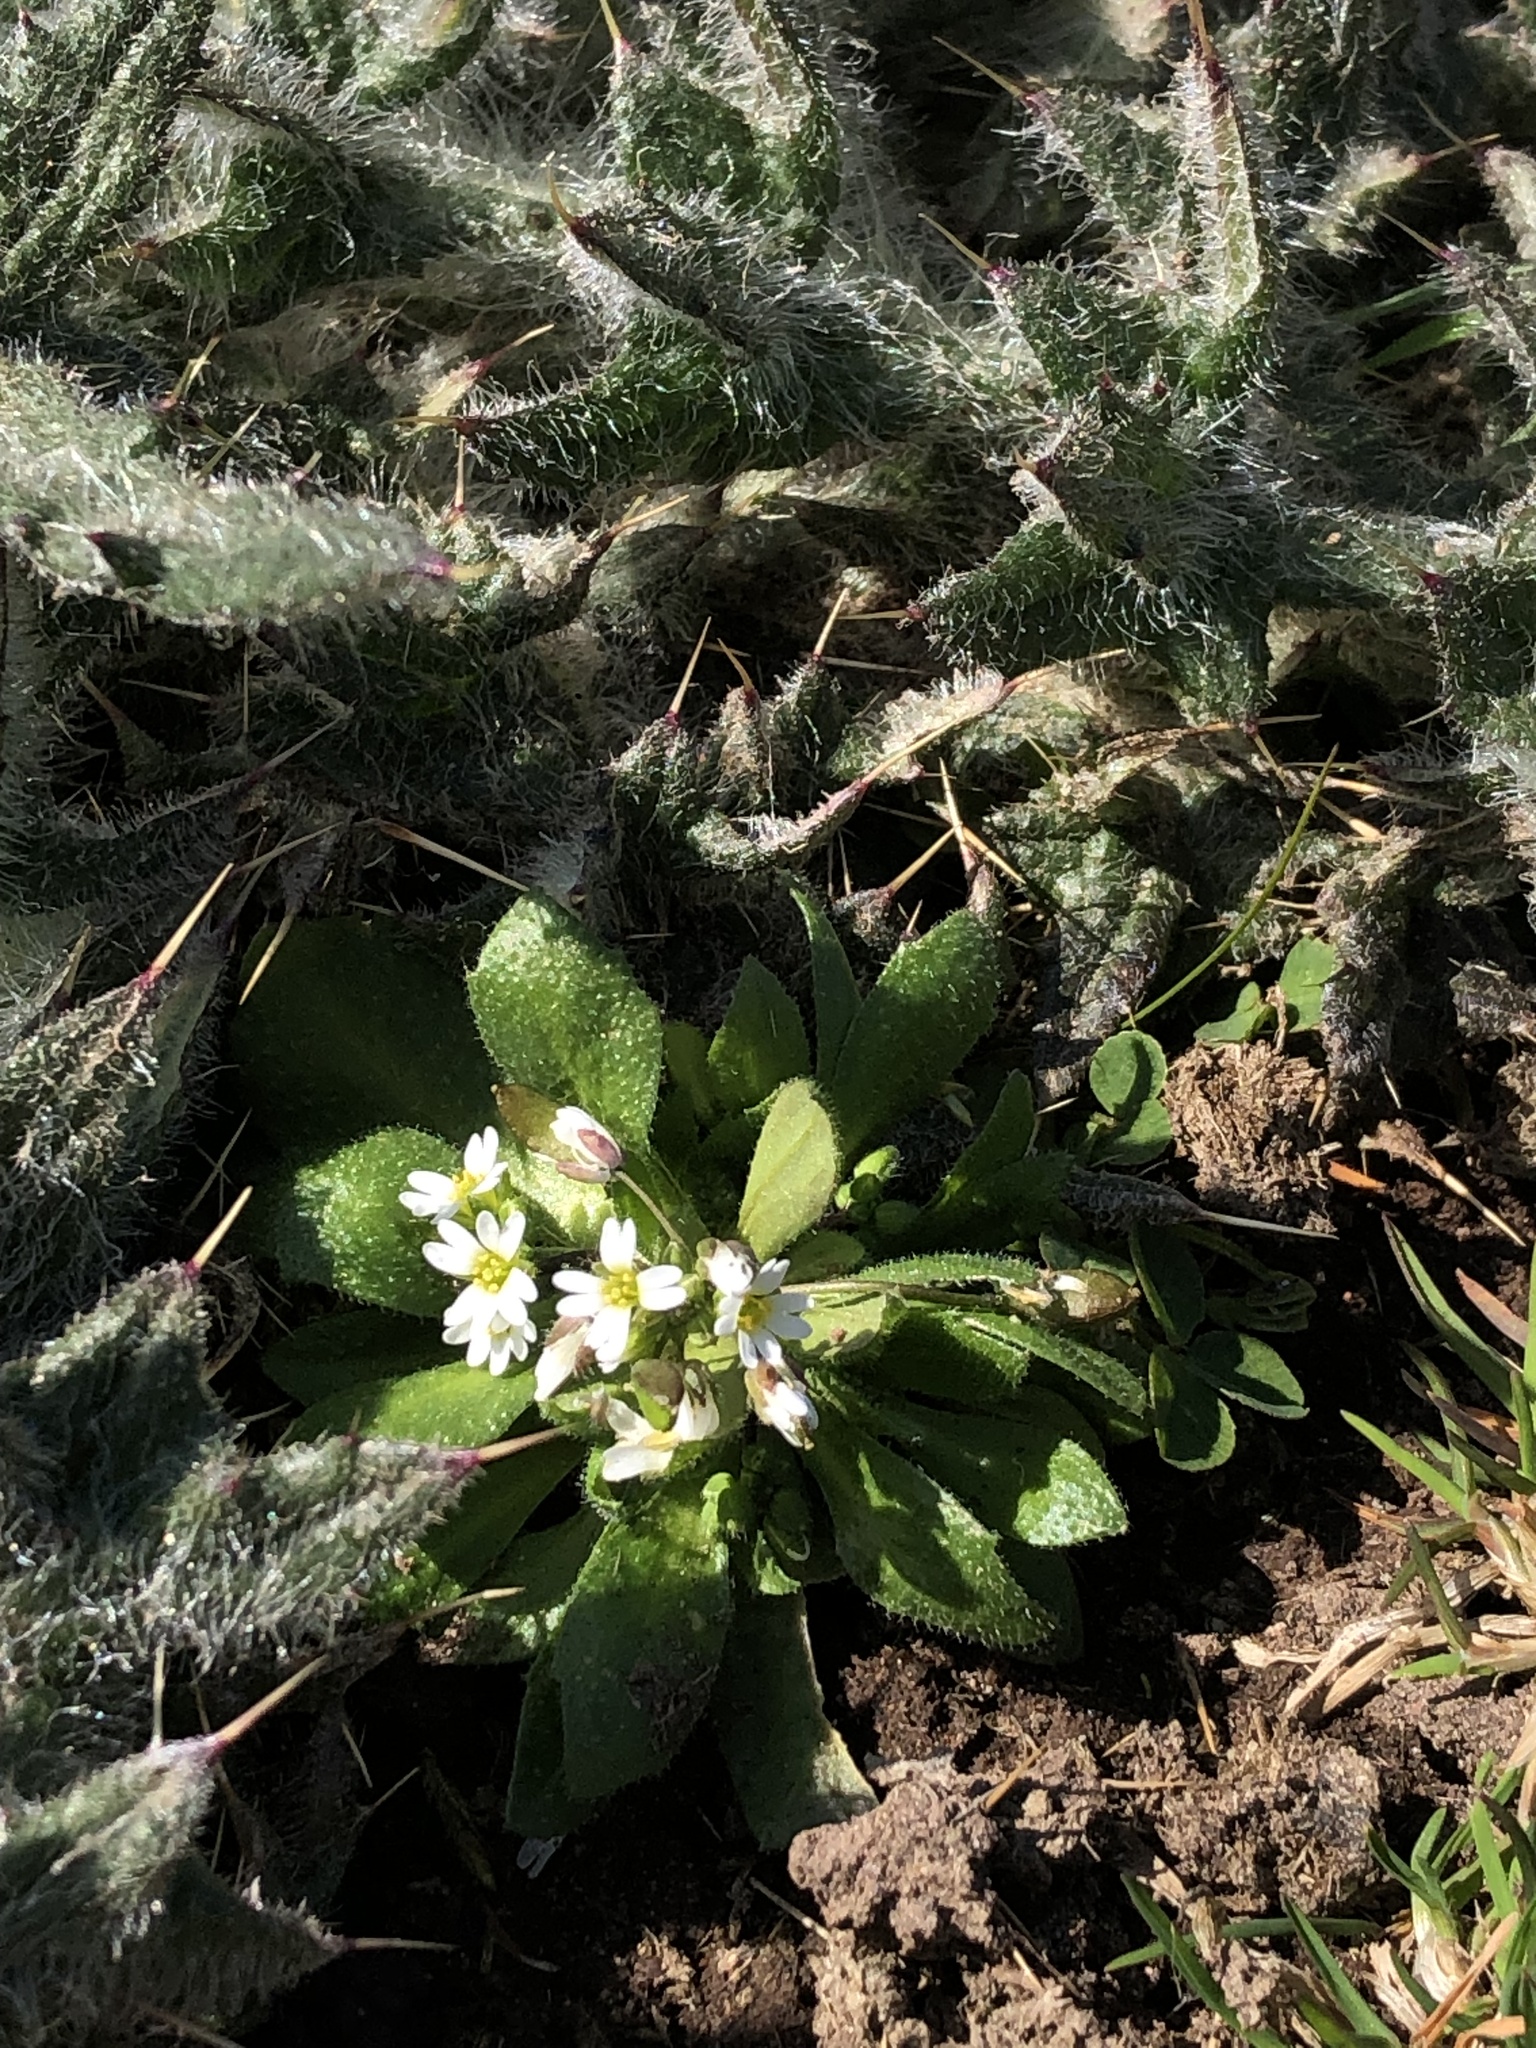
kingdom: Plantae
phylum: Tracheophyta
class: Magnoliopsida
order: Brassicales
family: Brassicaceae
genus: Draba
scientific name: Draba verna
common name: Spring draba
